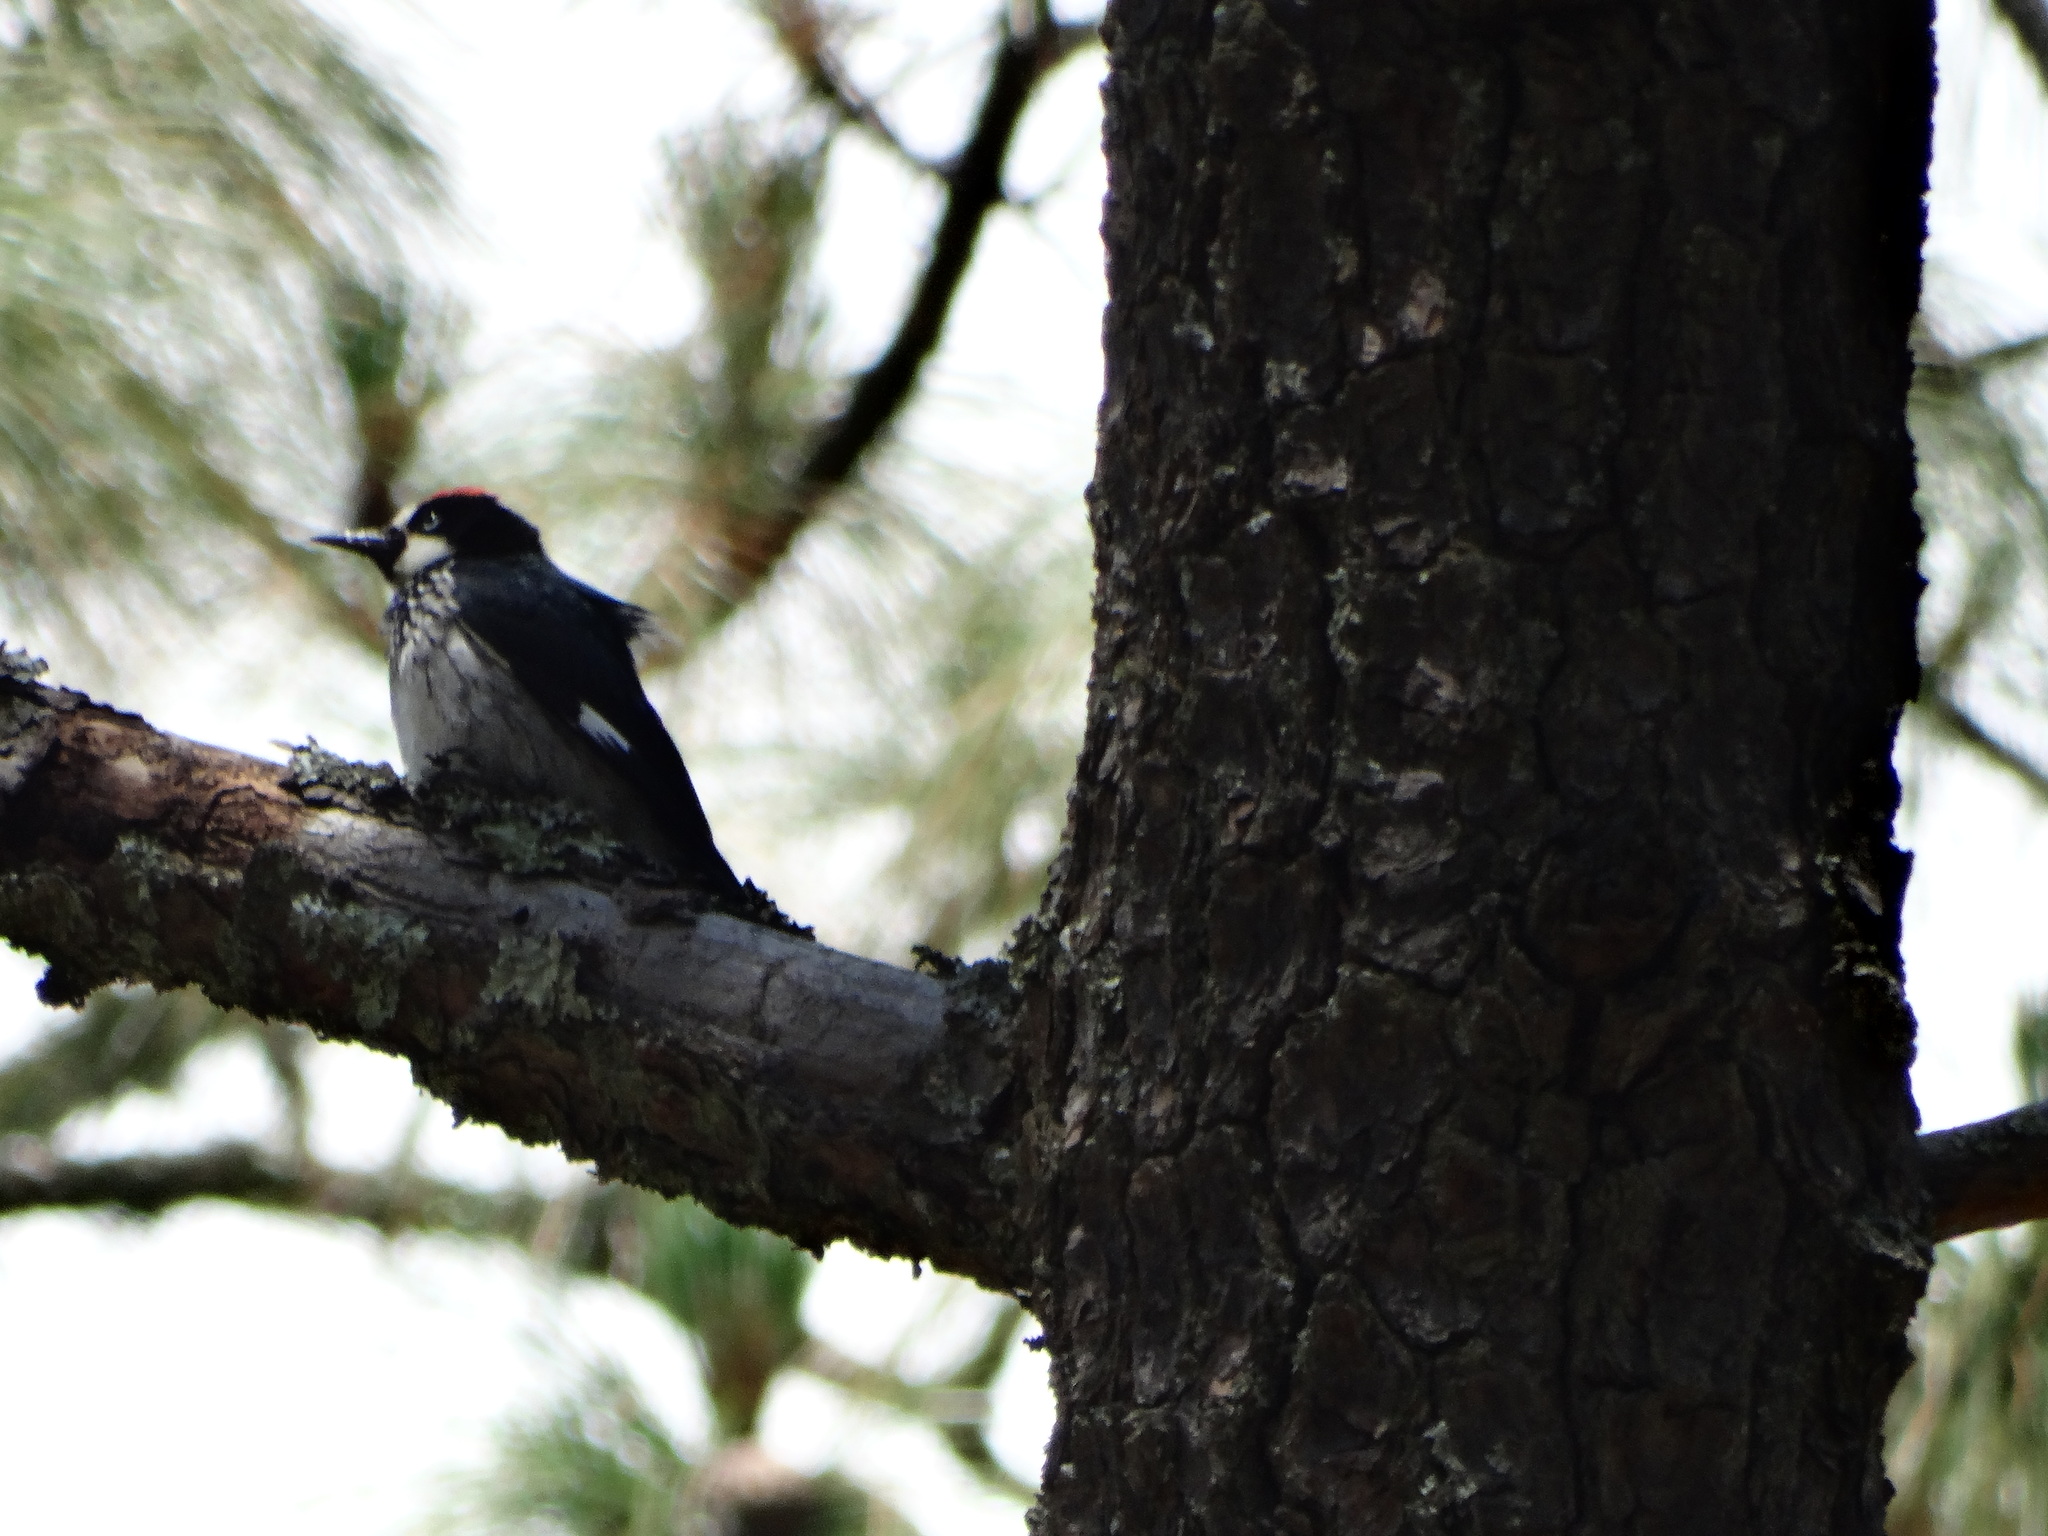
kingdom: Animalia
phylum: Chordata
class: Aves
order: Piciformes
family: Picidae
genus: Melanerpes
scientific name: Melanerpes formicivorus
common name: Acorn woodpecker
